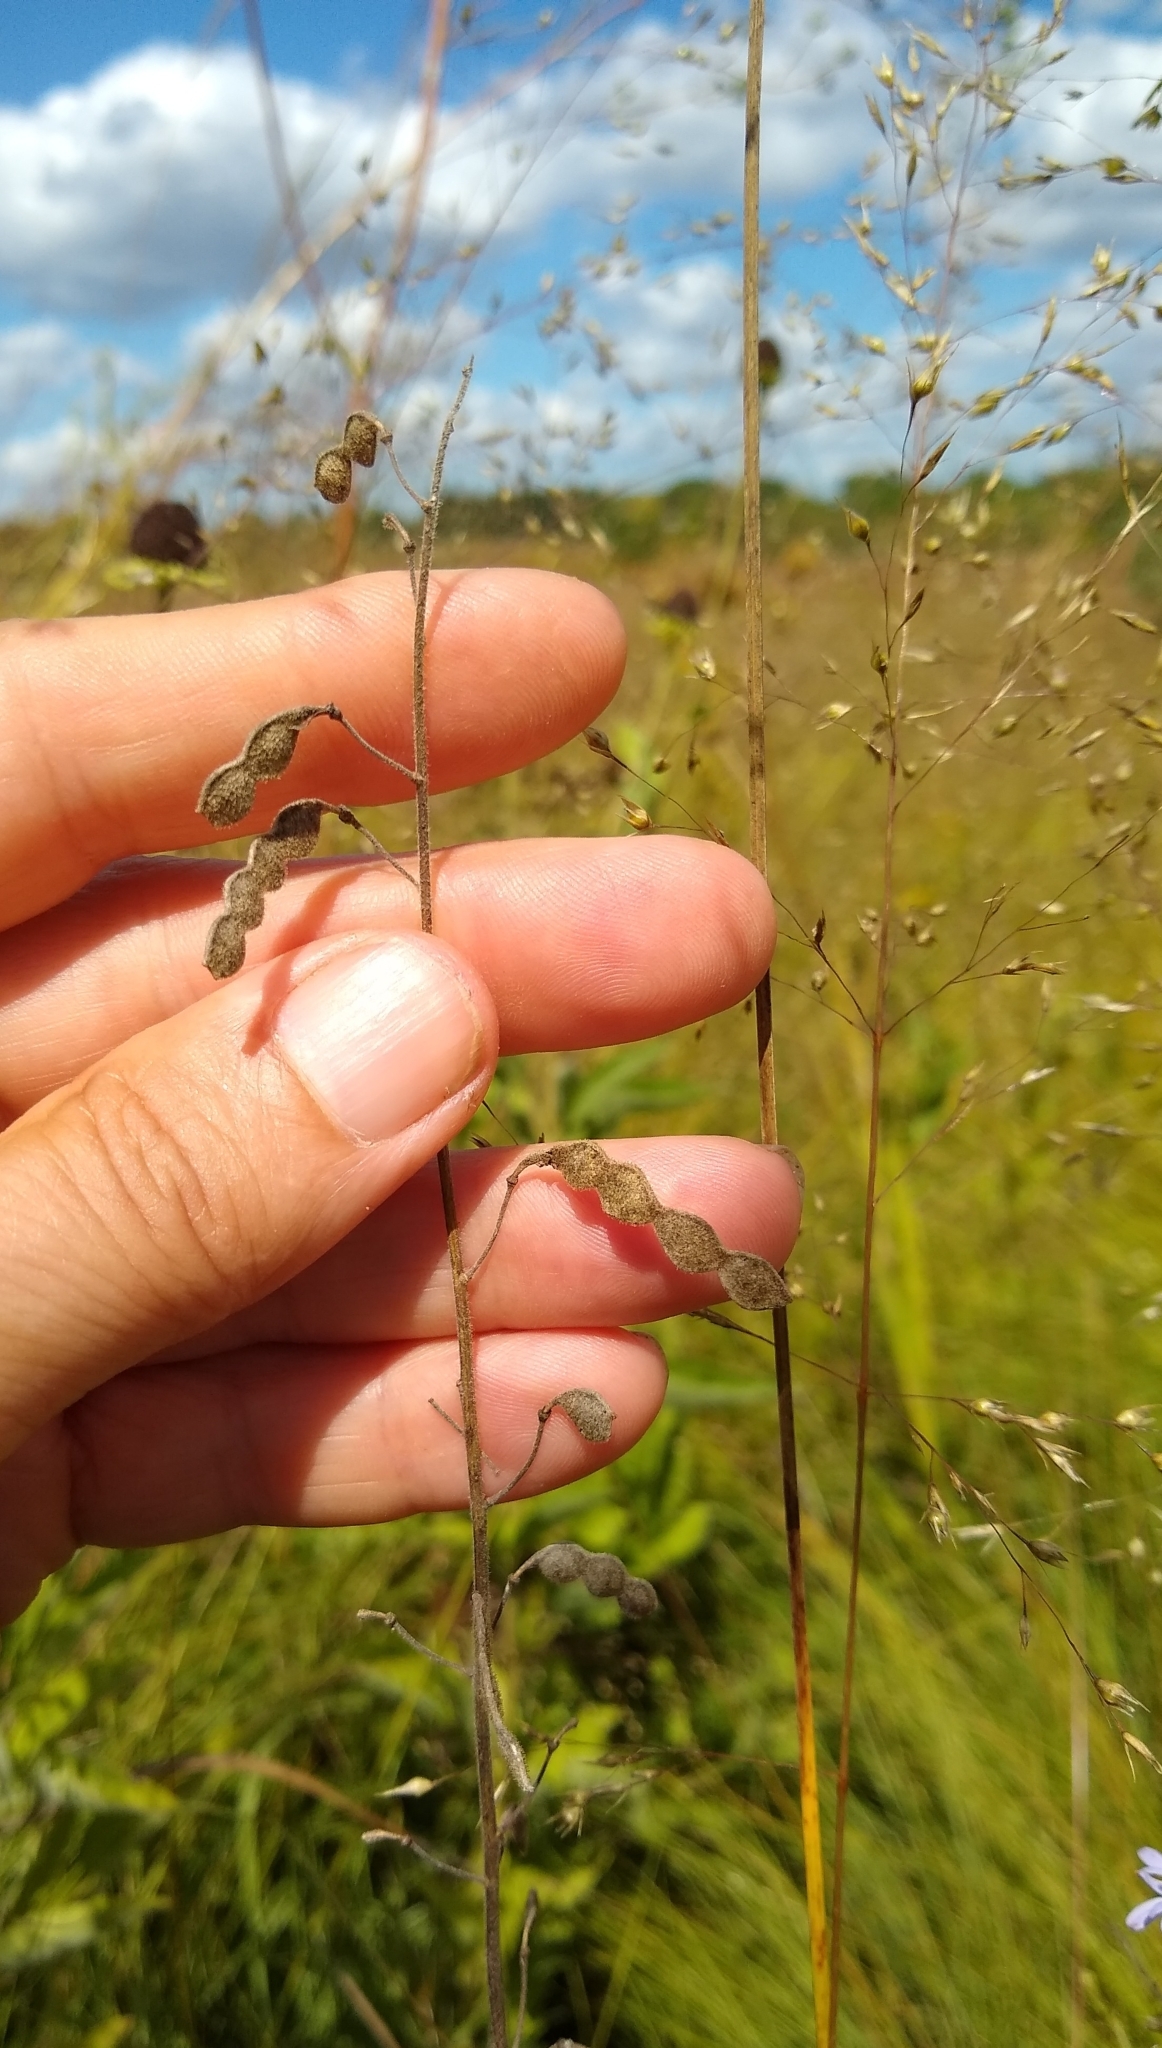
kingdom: Plantae
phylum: Tracheophyta
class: Magnoliopsida
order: Fabales
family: Fabaceae
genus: Desmodium
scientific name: Desmodium illinoense
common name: Illinois tick-clover
